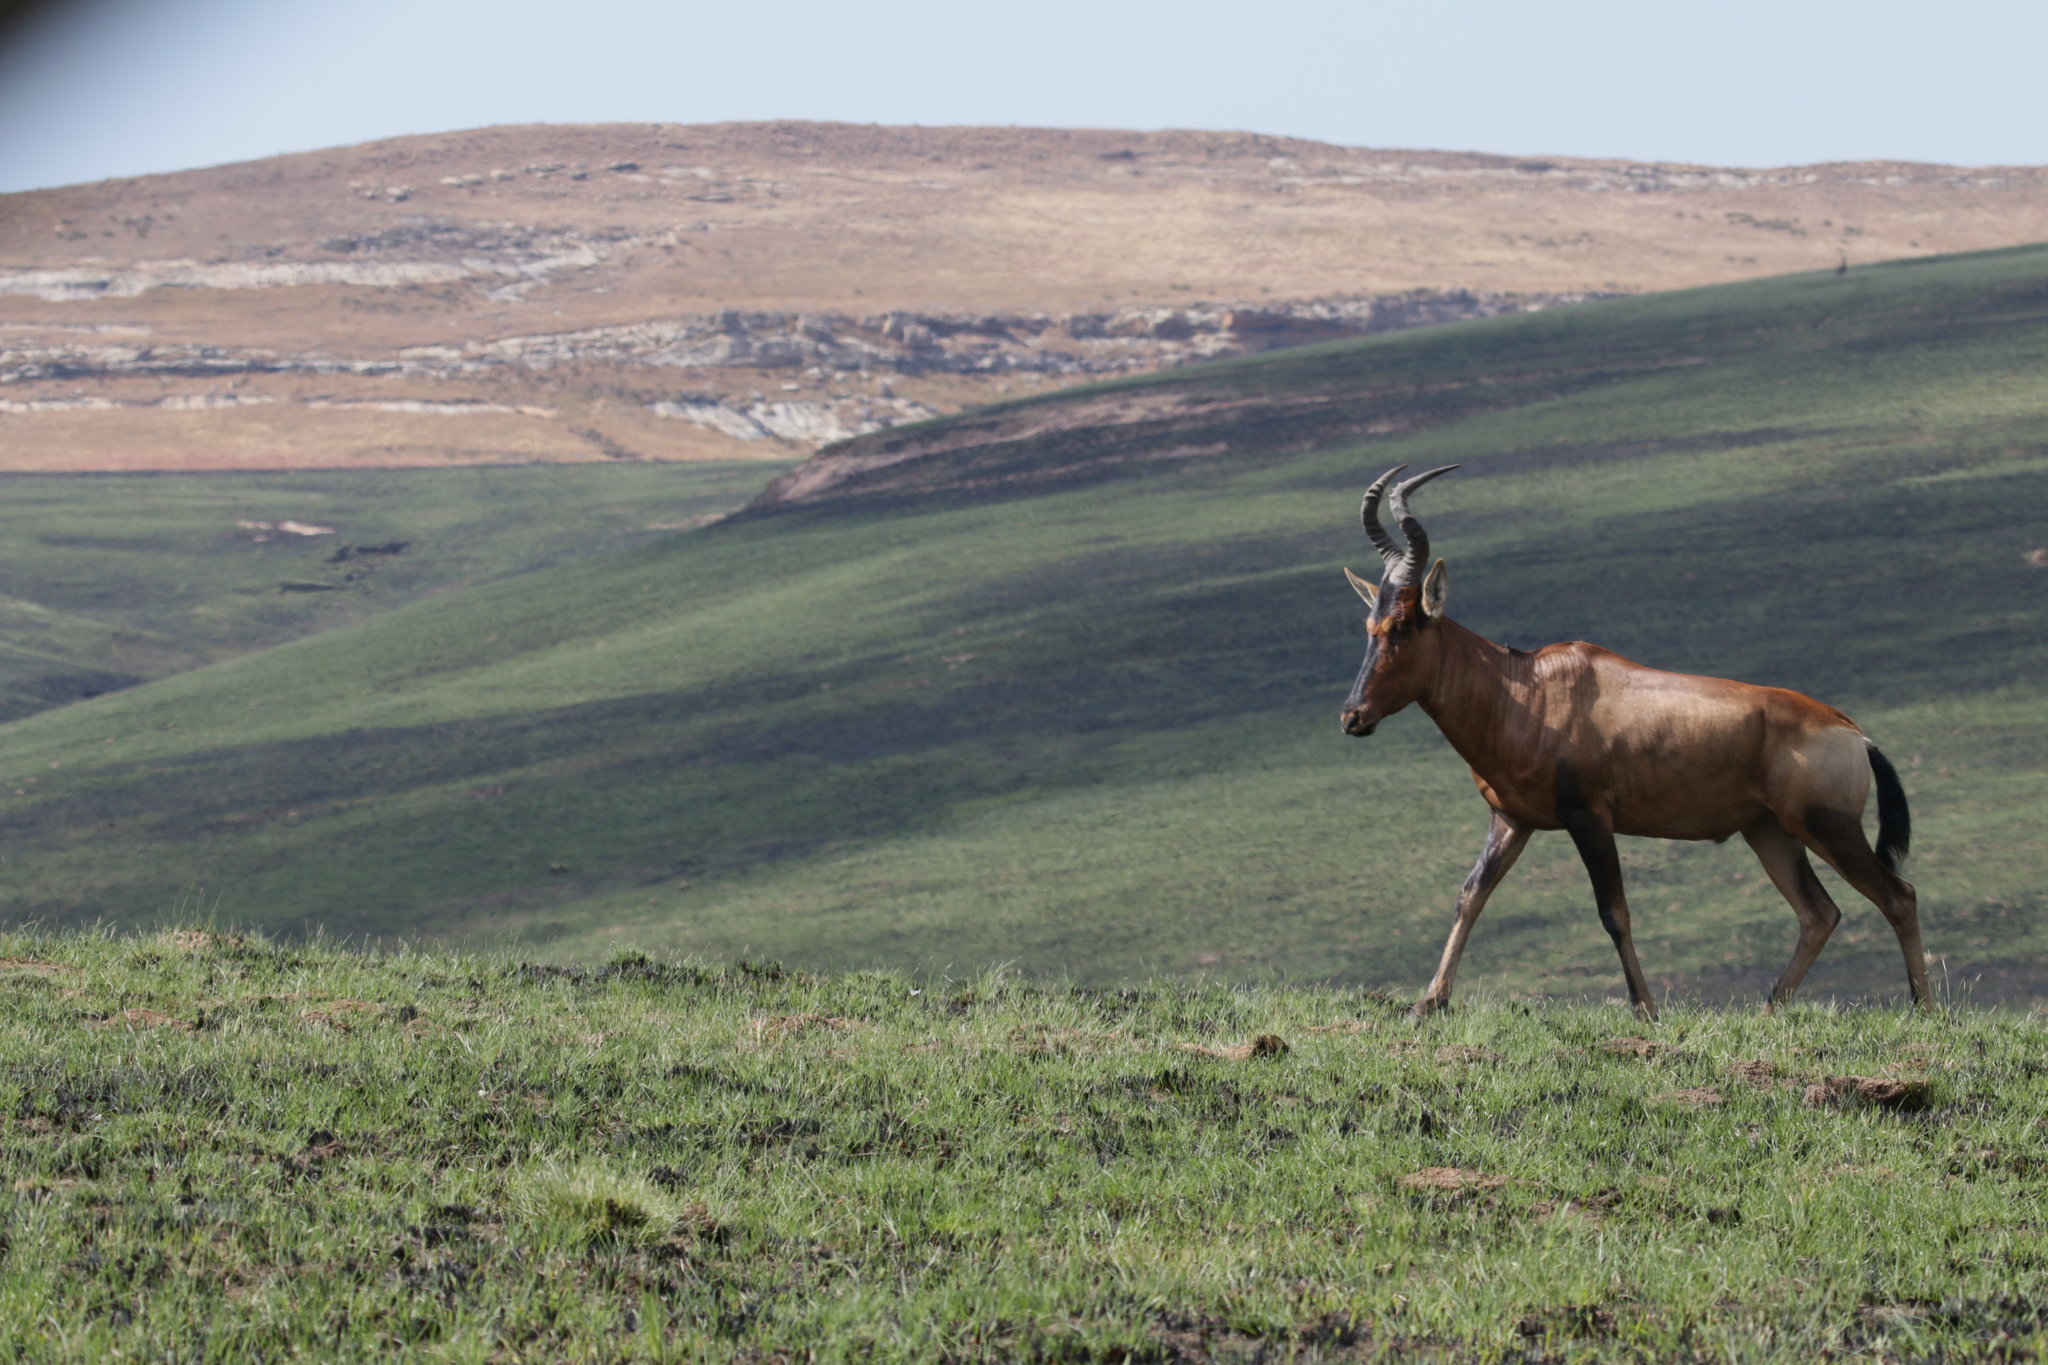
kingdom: Animalia
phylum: Chordata
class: Mammalia
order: Artiodactyla
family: Bovidae
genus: Alcelaphus
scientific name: Alcelaphus caama
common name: Red hartebeest
